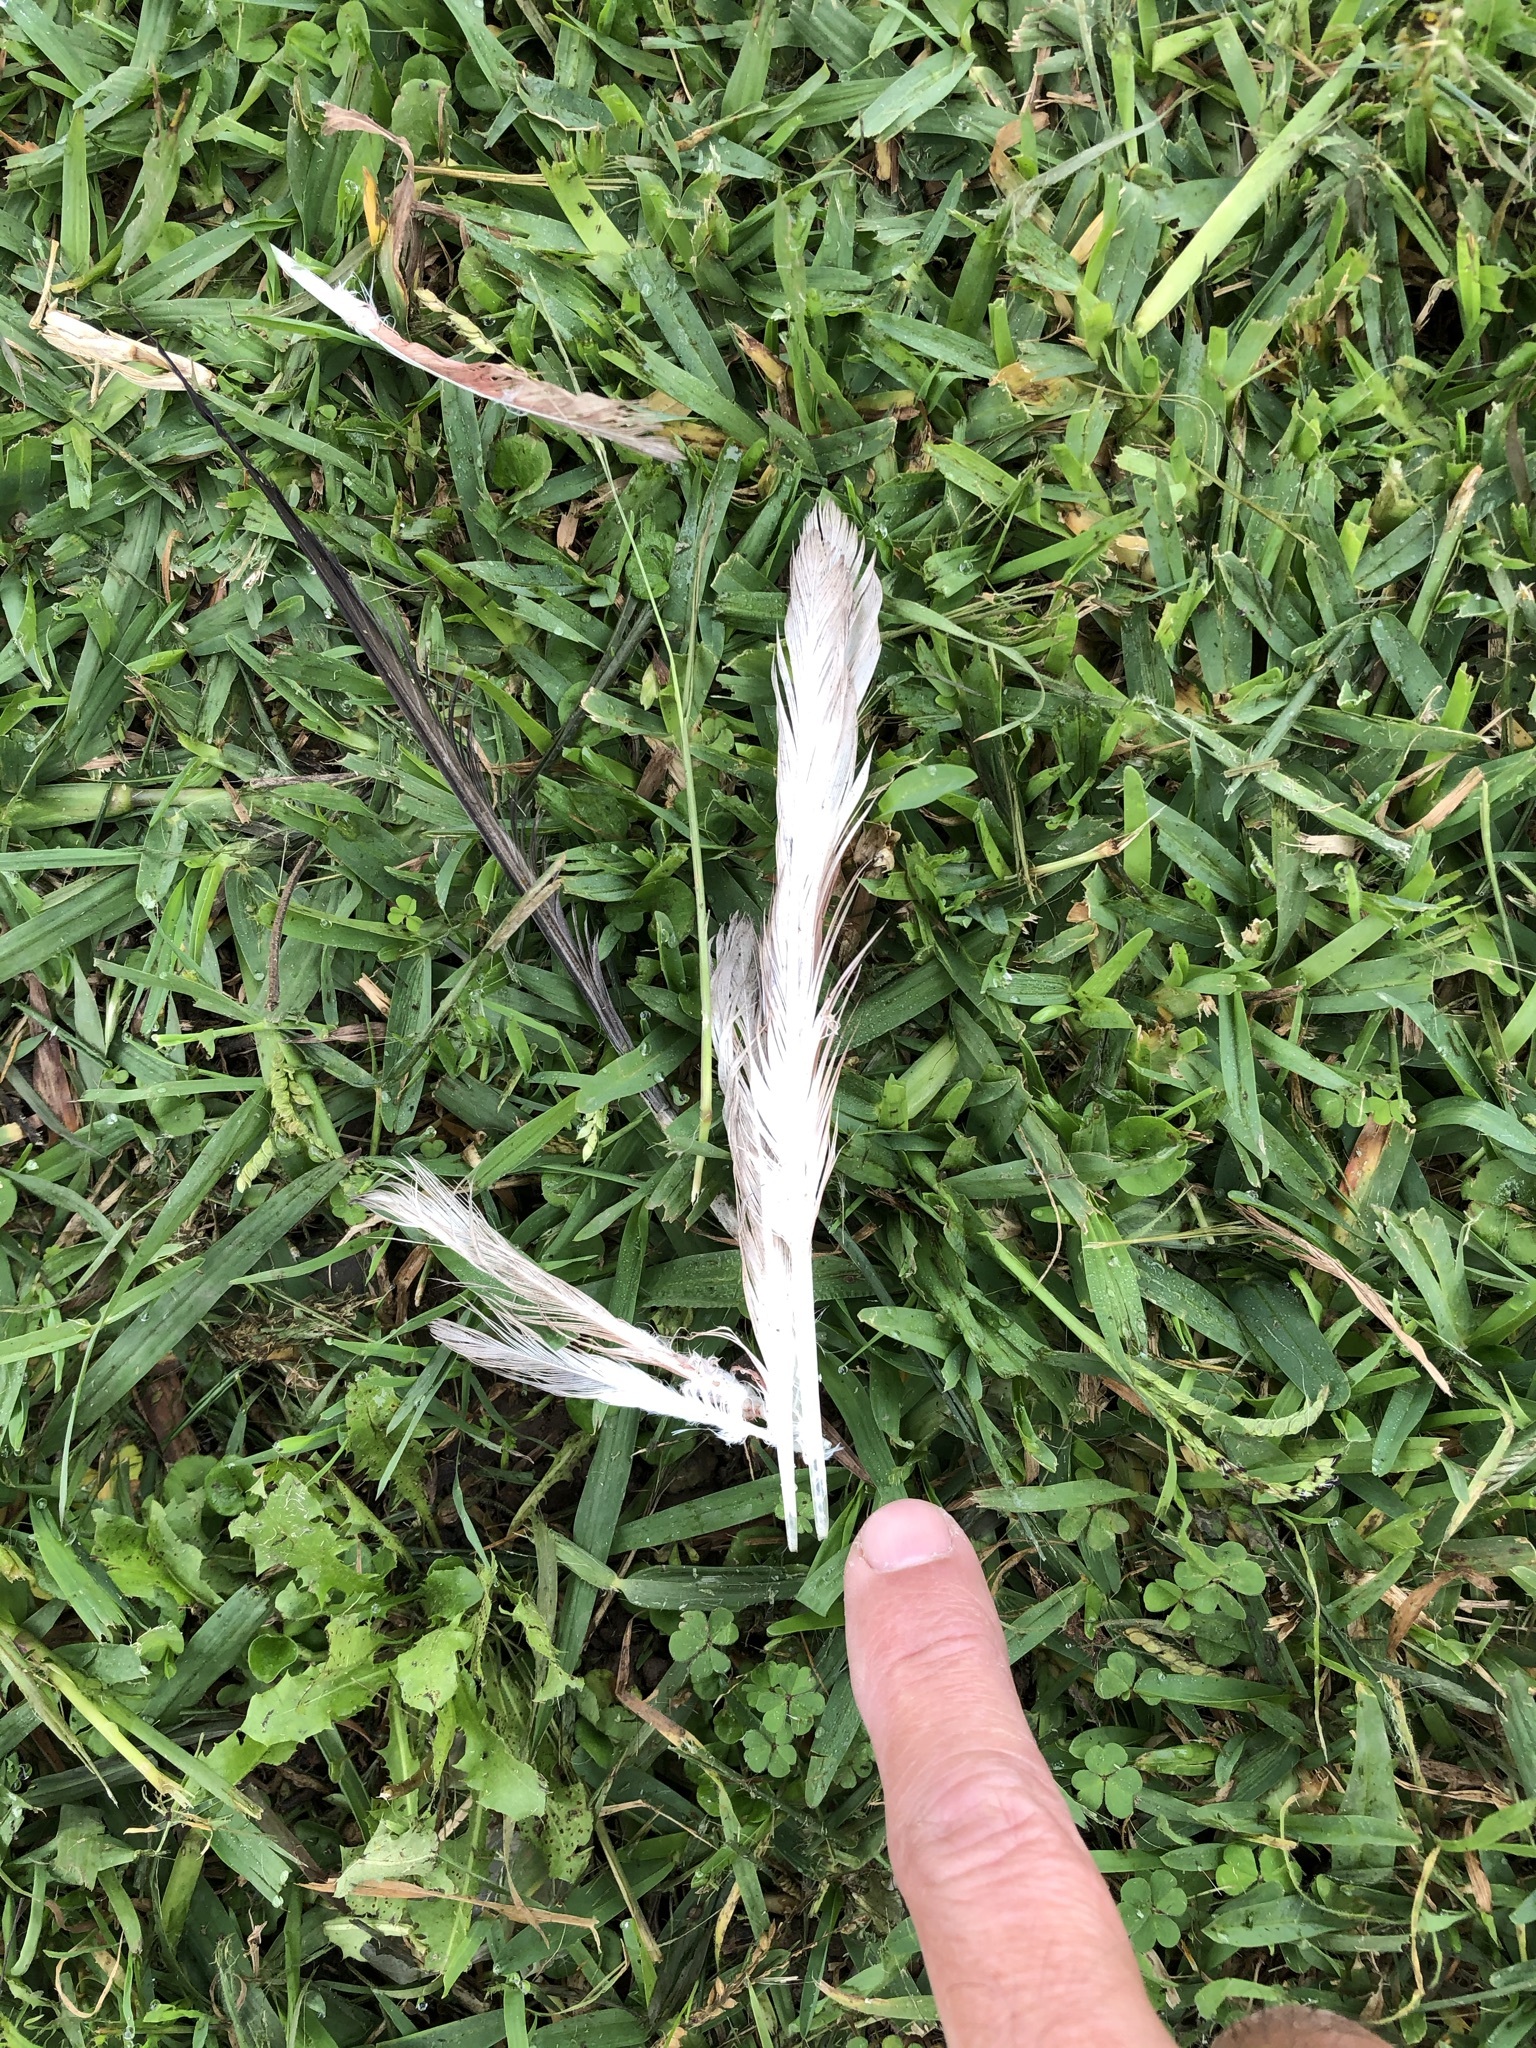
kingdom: Animalia
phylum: Chordata
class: Aves
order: Columbiformes
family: Columbidae
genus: Columba
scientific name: Columba livia
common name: Rock pigeon
